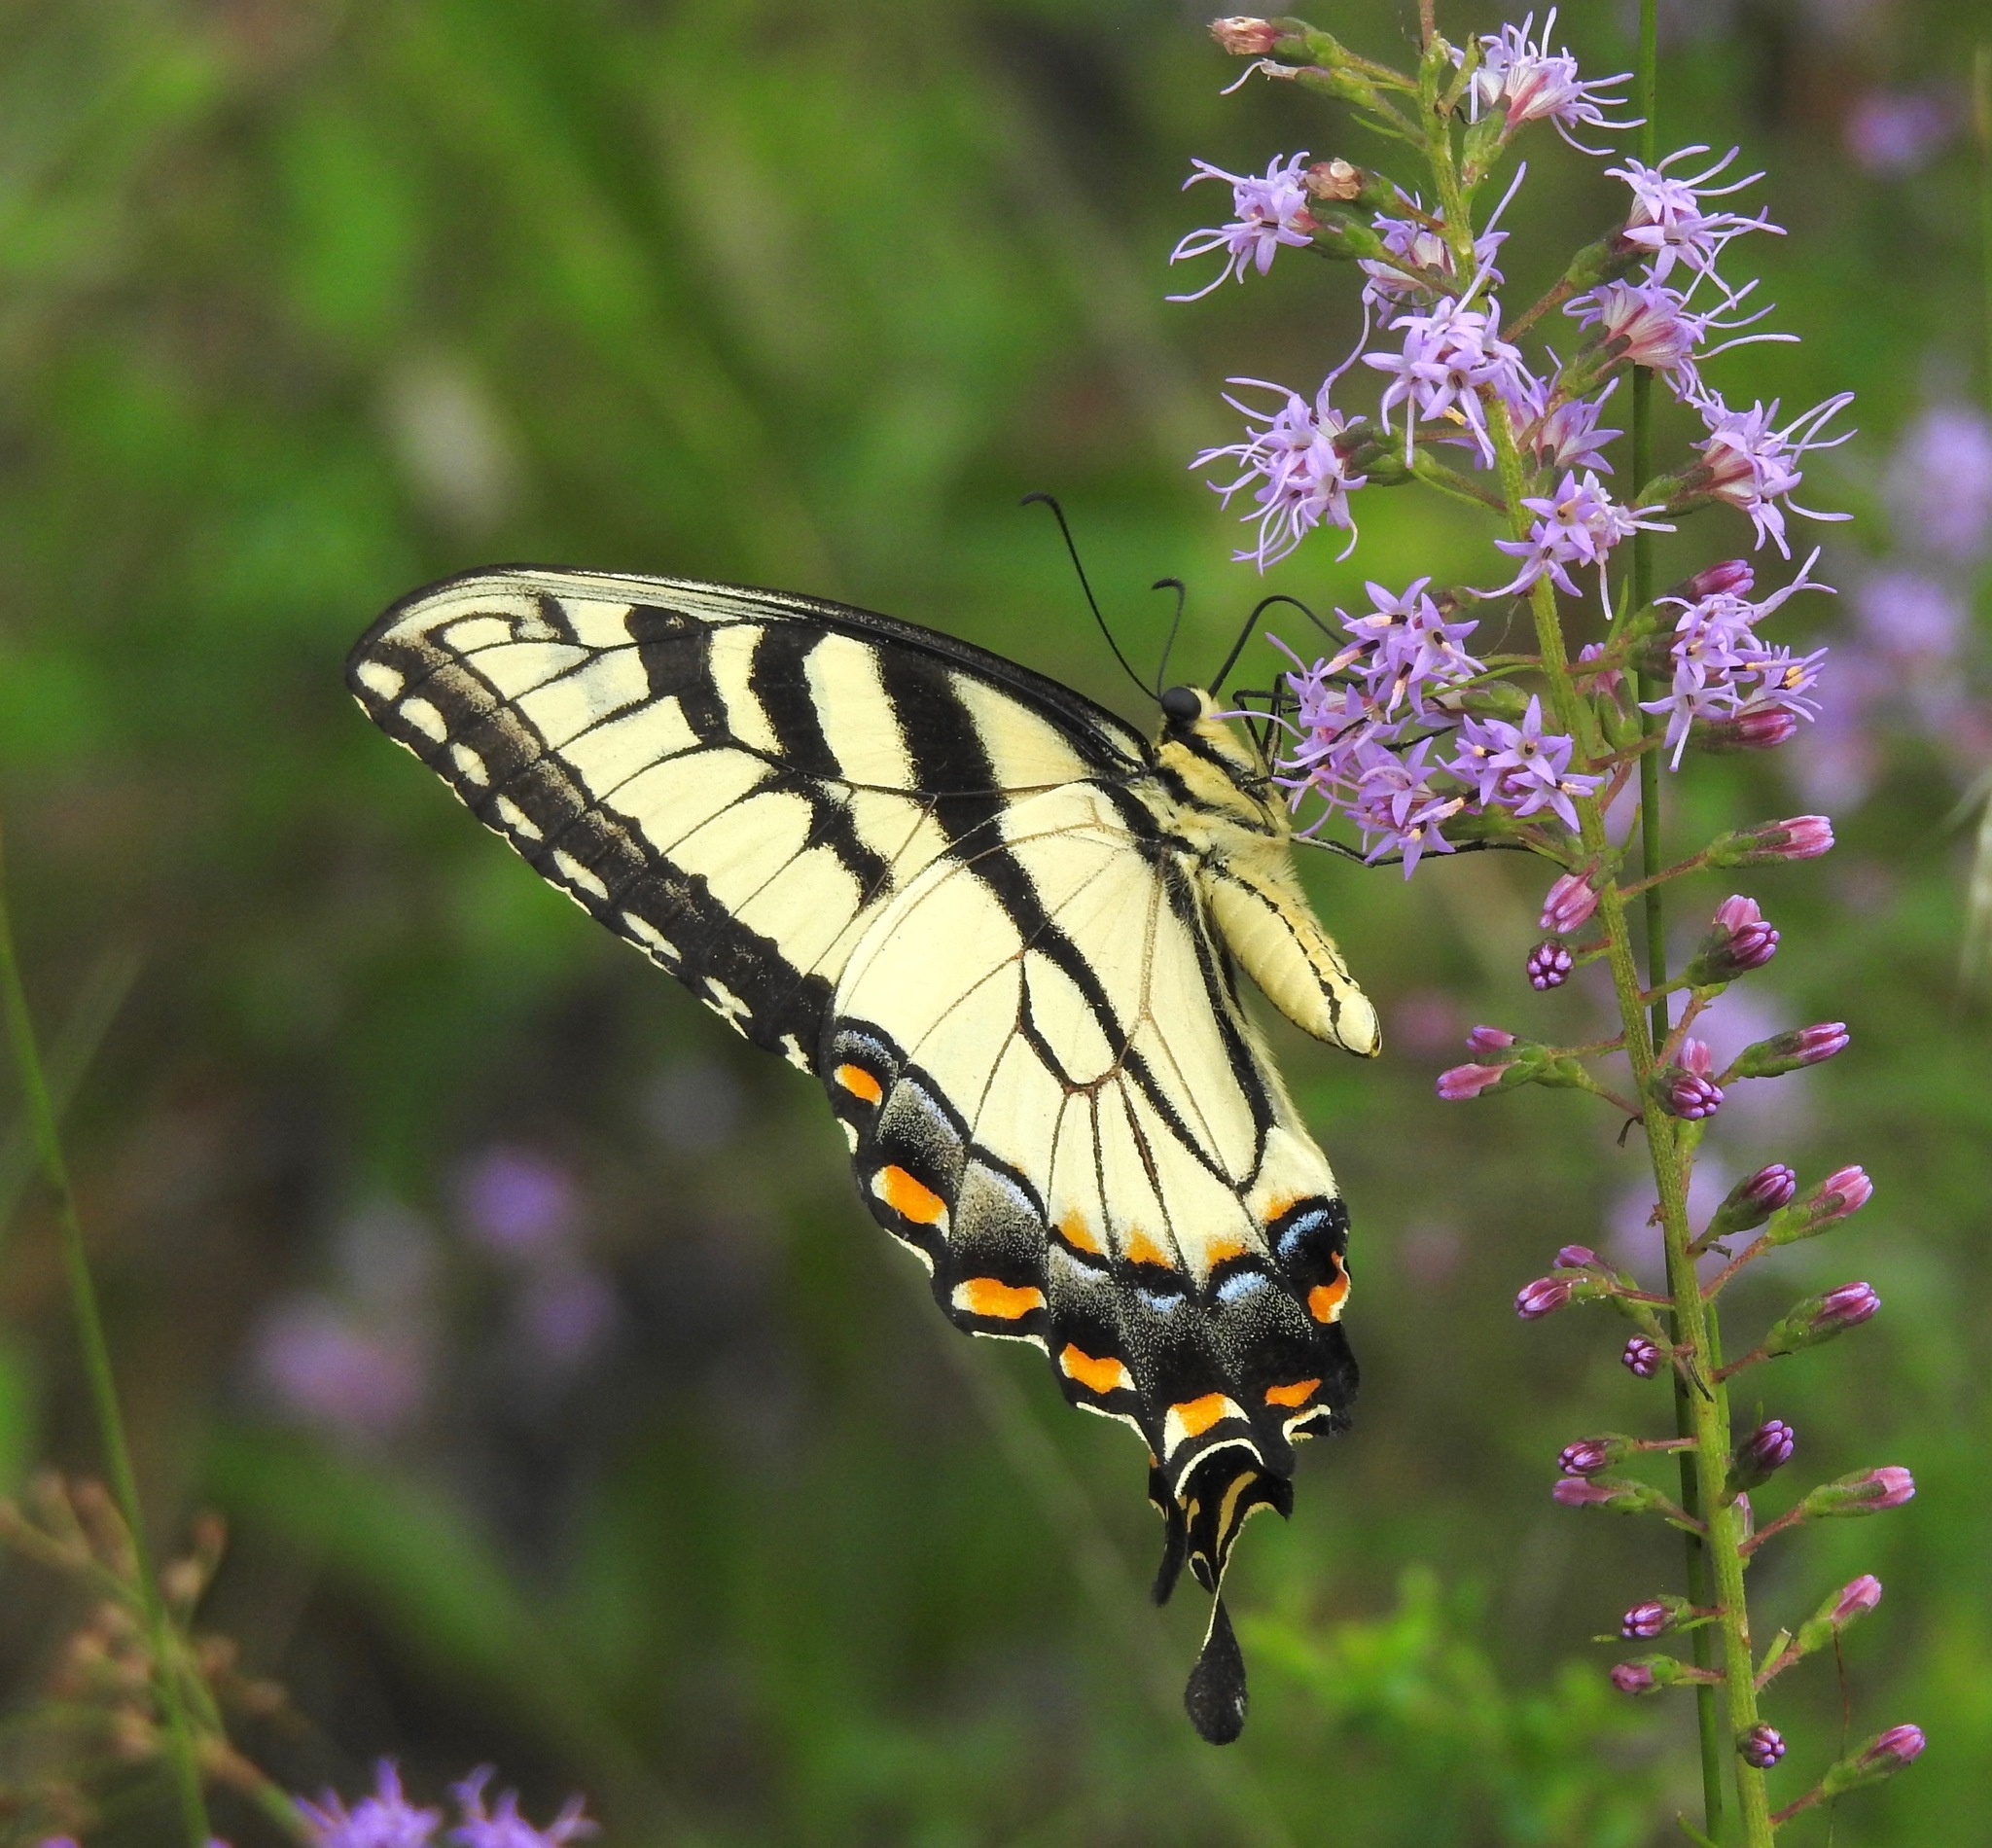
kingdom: Animalia
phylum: Arthropoda
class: Insecta
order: Lepidoptera
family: Papilionidae
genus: Papilio
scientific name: Papilio glaucus
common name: Tiger swallowtail
